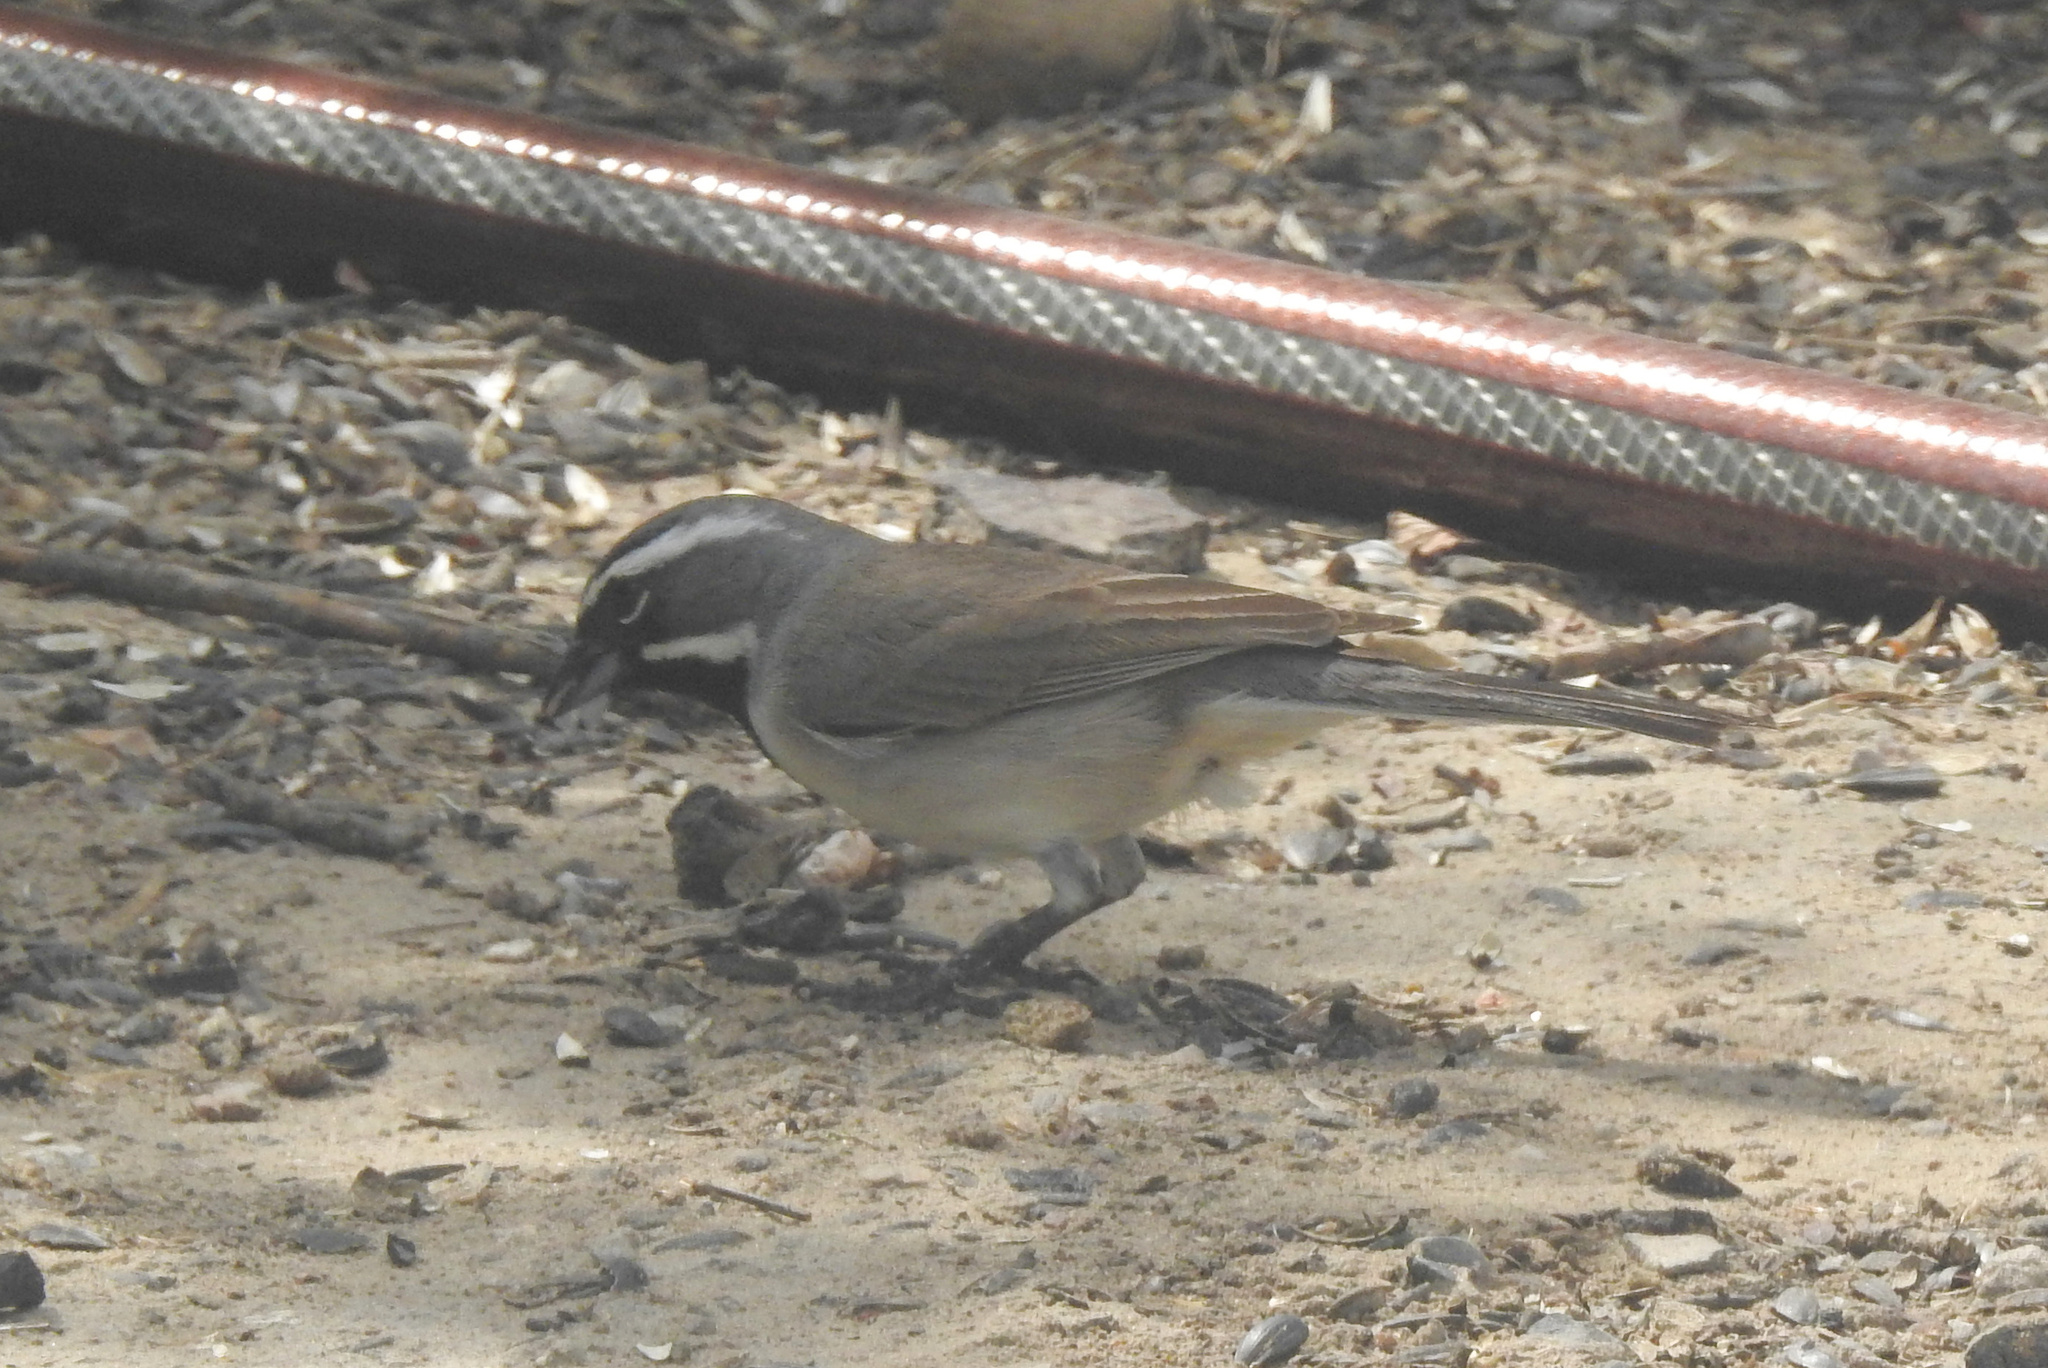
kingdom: Animalia
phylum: Chordata
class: Aves
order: Passeriformes
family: Passerellidae
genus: Amphispiza
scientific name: Amphispiza bilineata
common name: Black-throated sparrow
